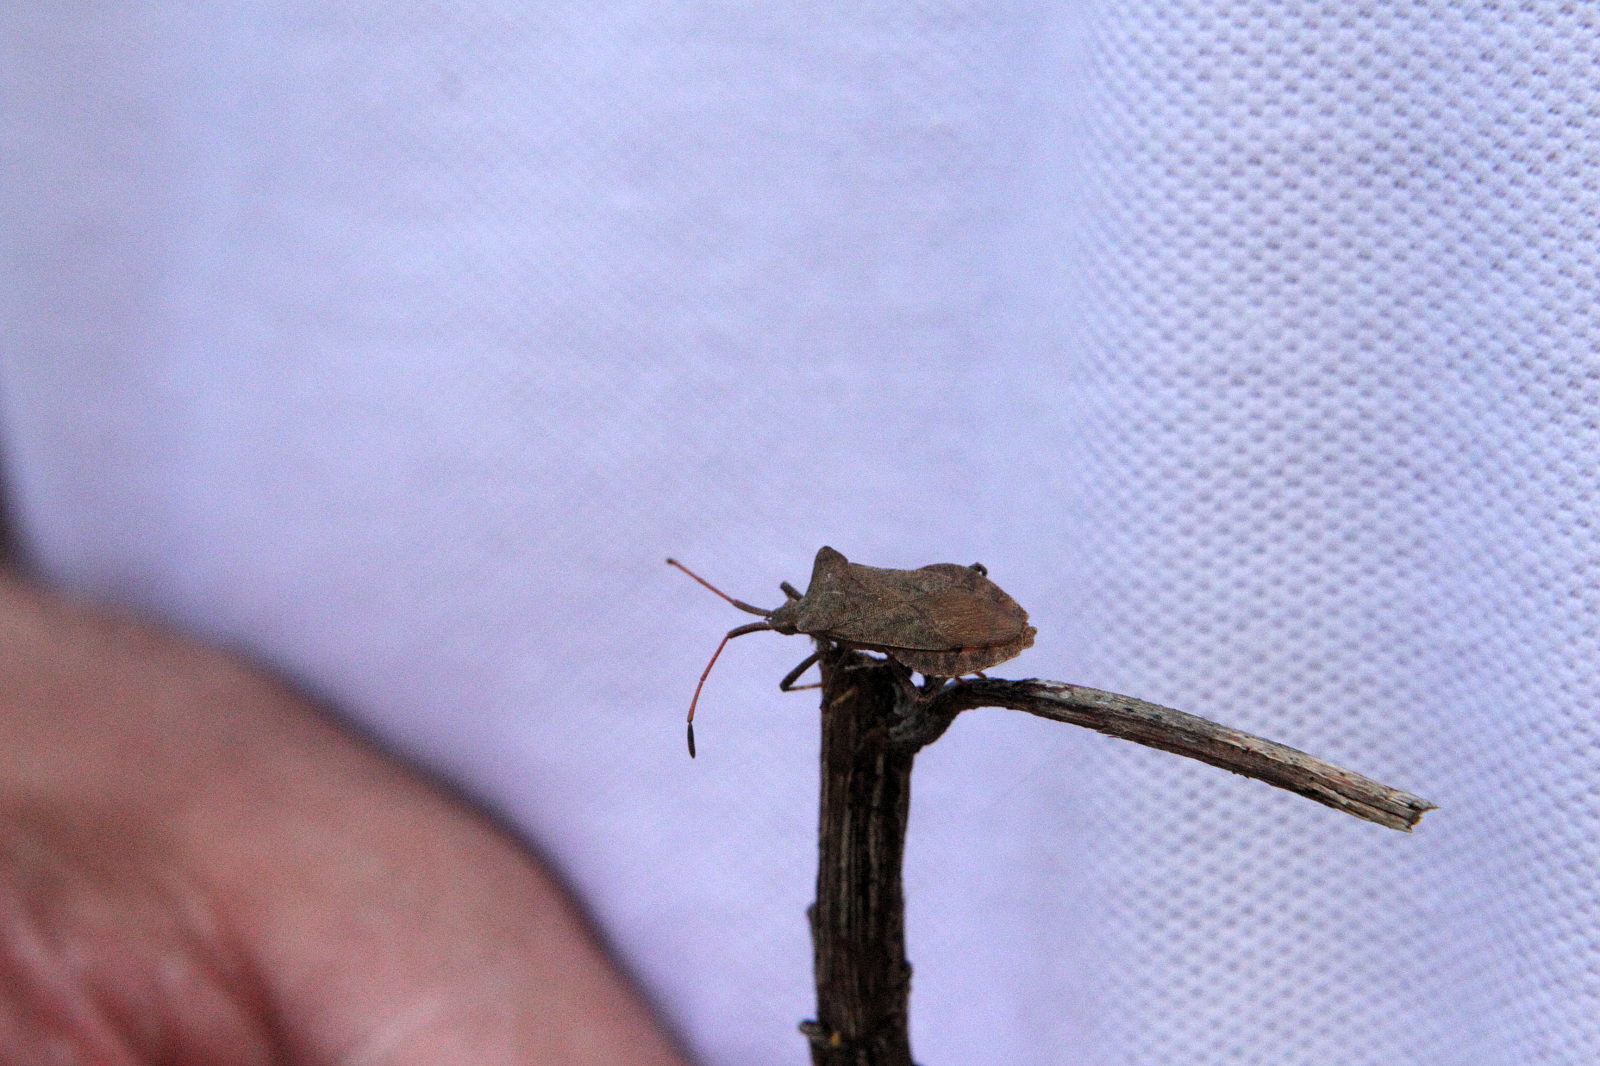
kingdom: Animalia
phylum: Arthropoda
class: Insecta
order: Hemiptera
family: Coreidae
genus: Coreus
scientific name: Coreus marginatus
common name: Dock bug
